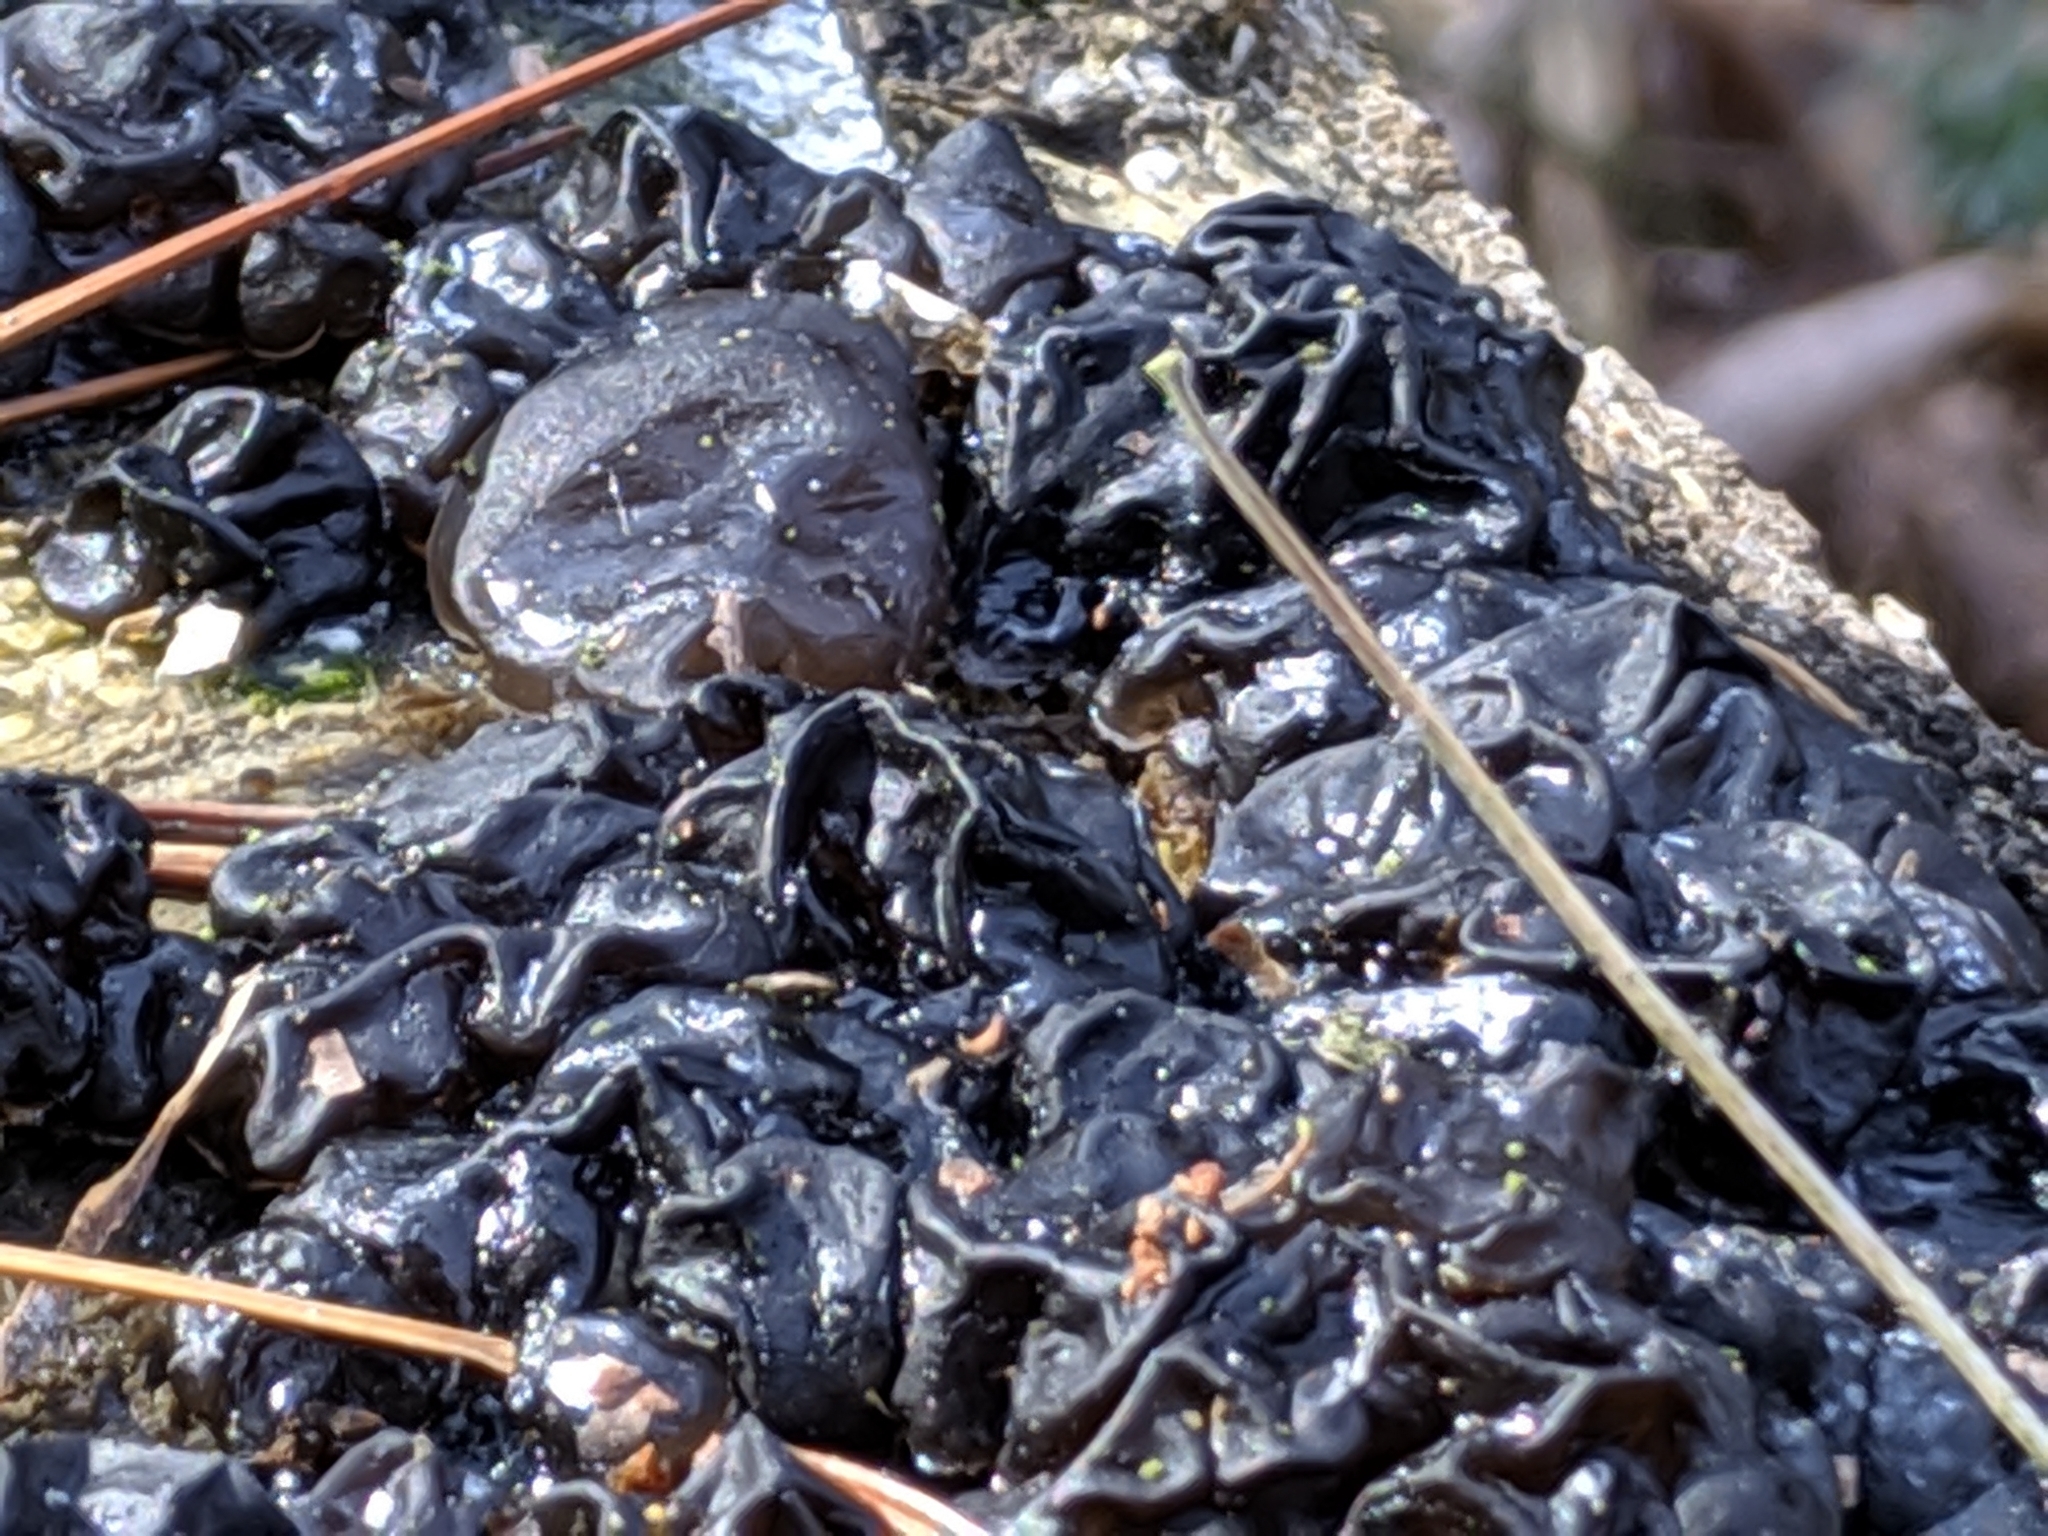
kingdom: Fungi
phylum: Basidiomycota
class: Agaricomycetes
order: Auriculariales
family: Auriculariaceae
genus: Exidia
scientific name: Exidia
